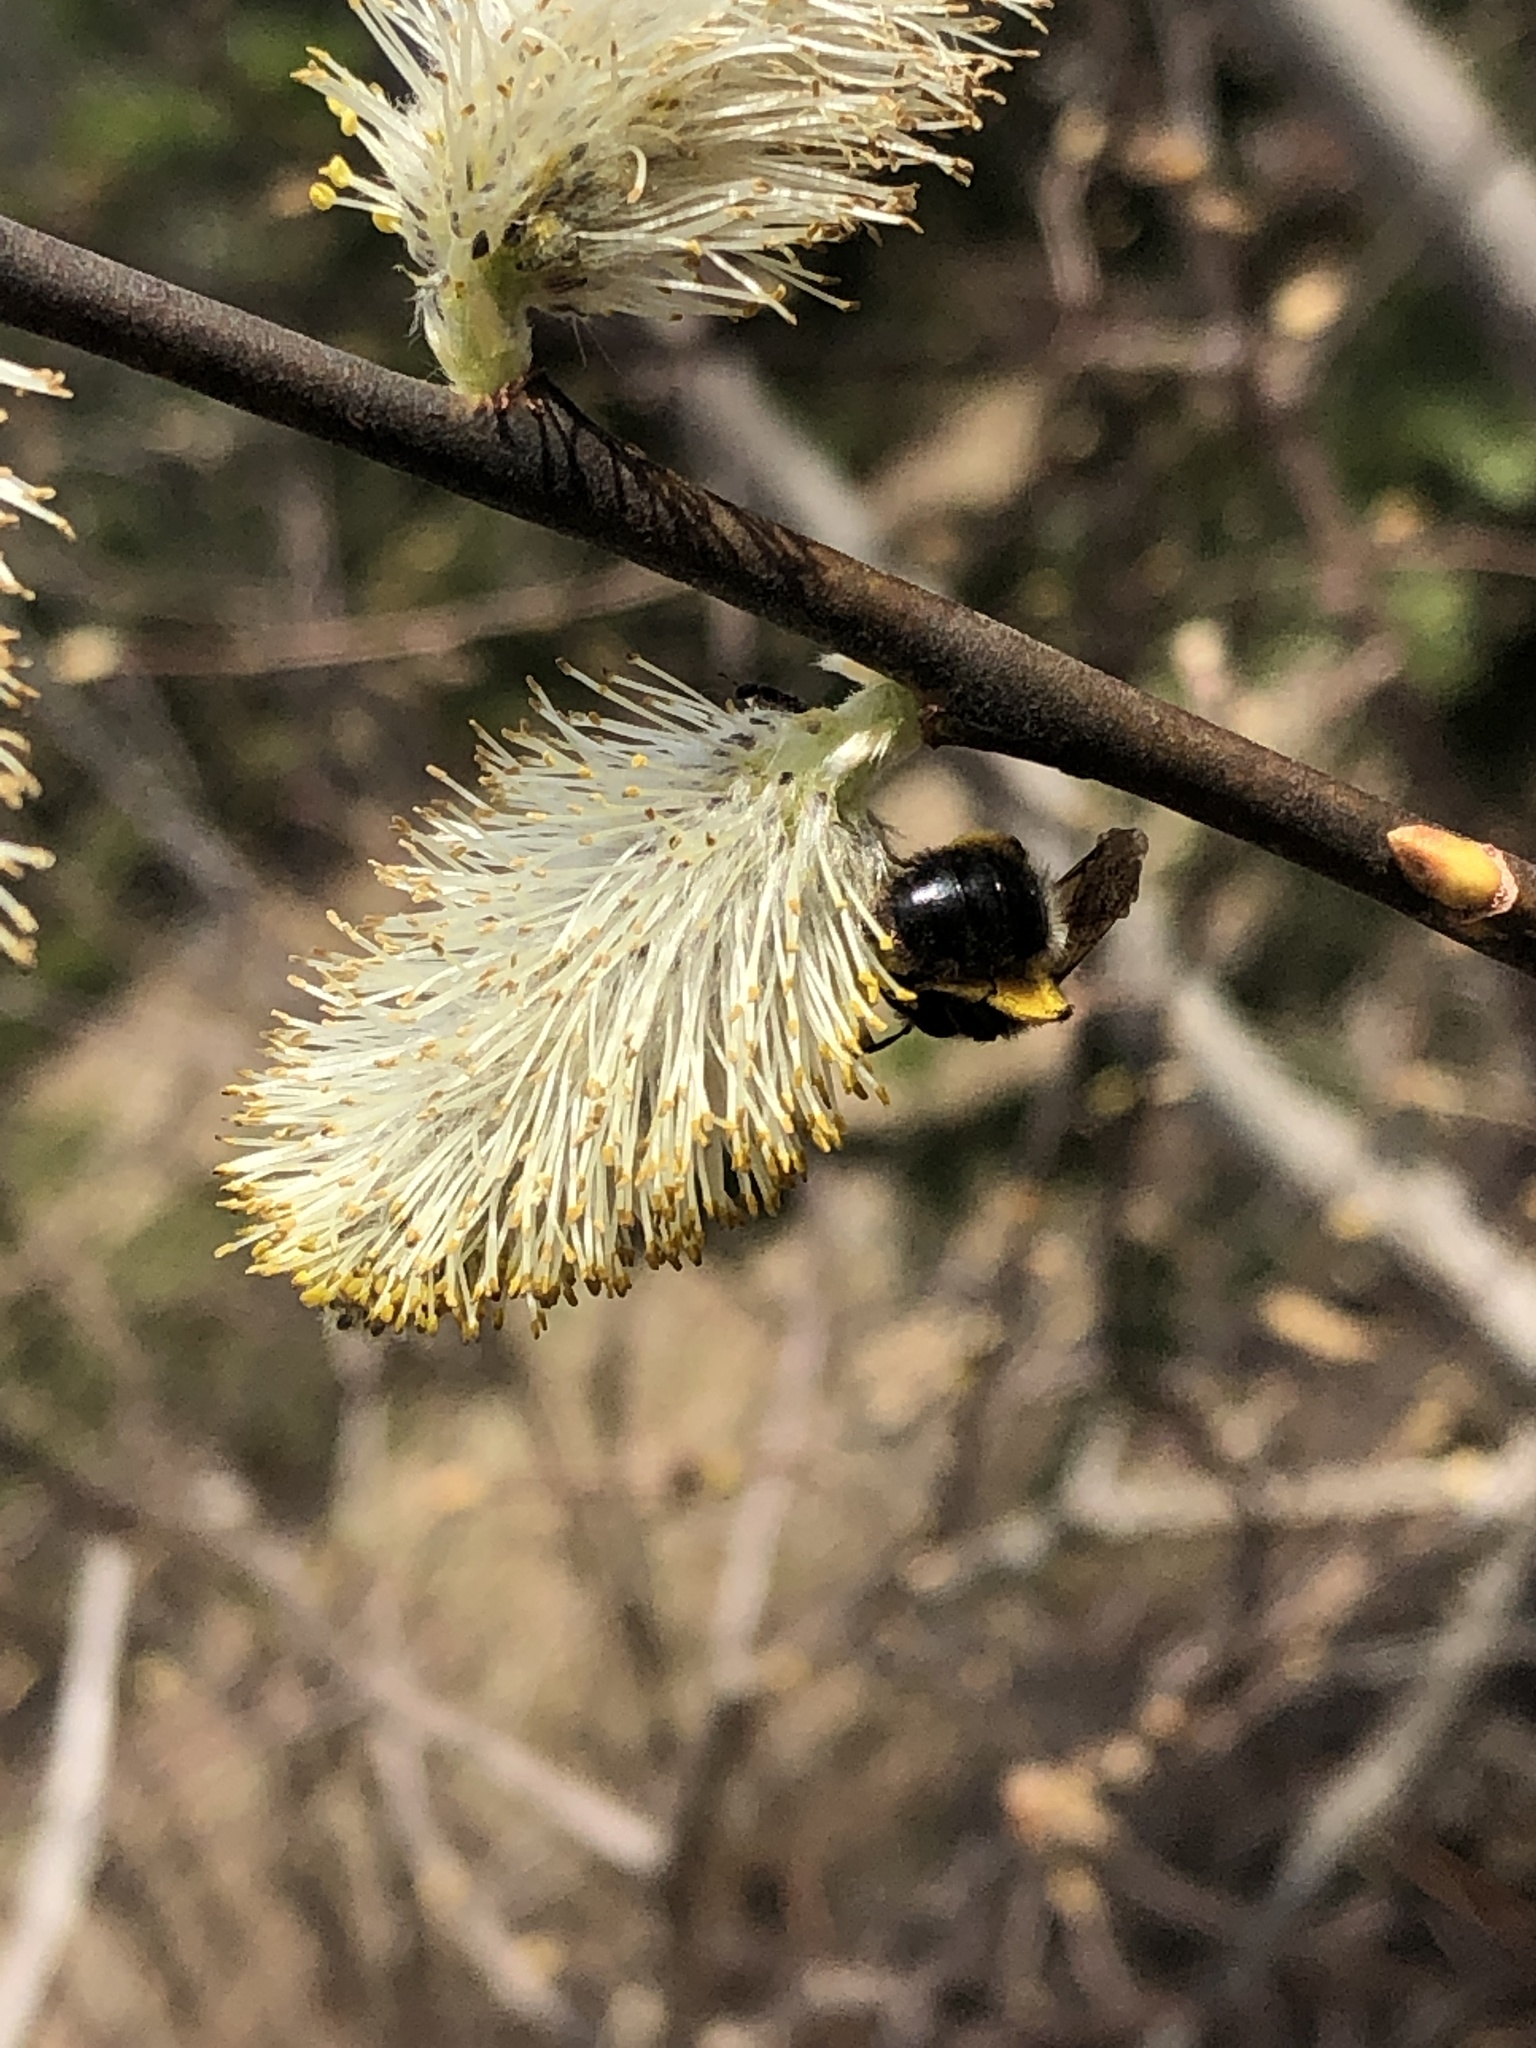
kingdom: Animalia
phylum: Arthropoda
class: Insecta
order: Hymenoptera
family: Andrenidae
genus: Andrena
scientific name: Andrena clarkella
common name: Clarke's mining bee
